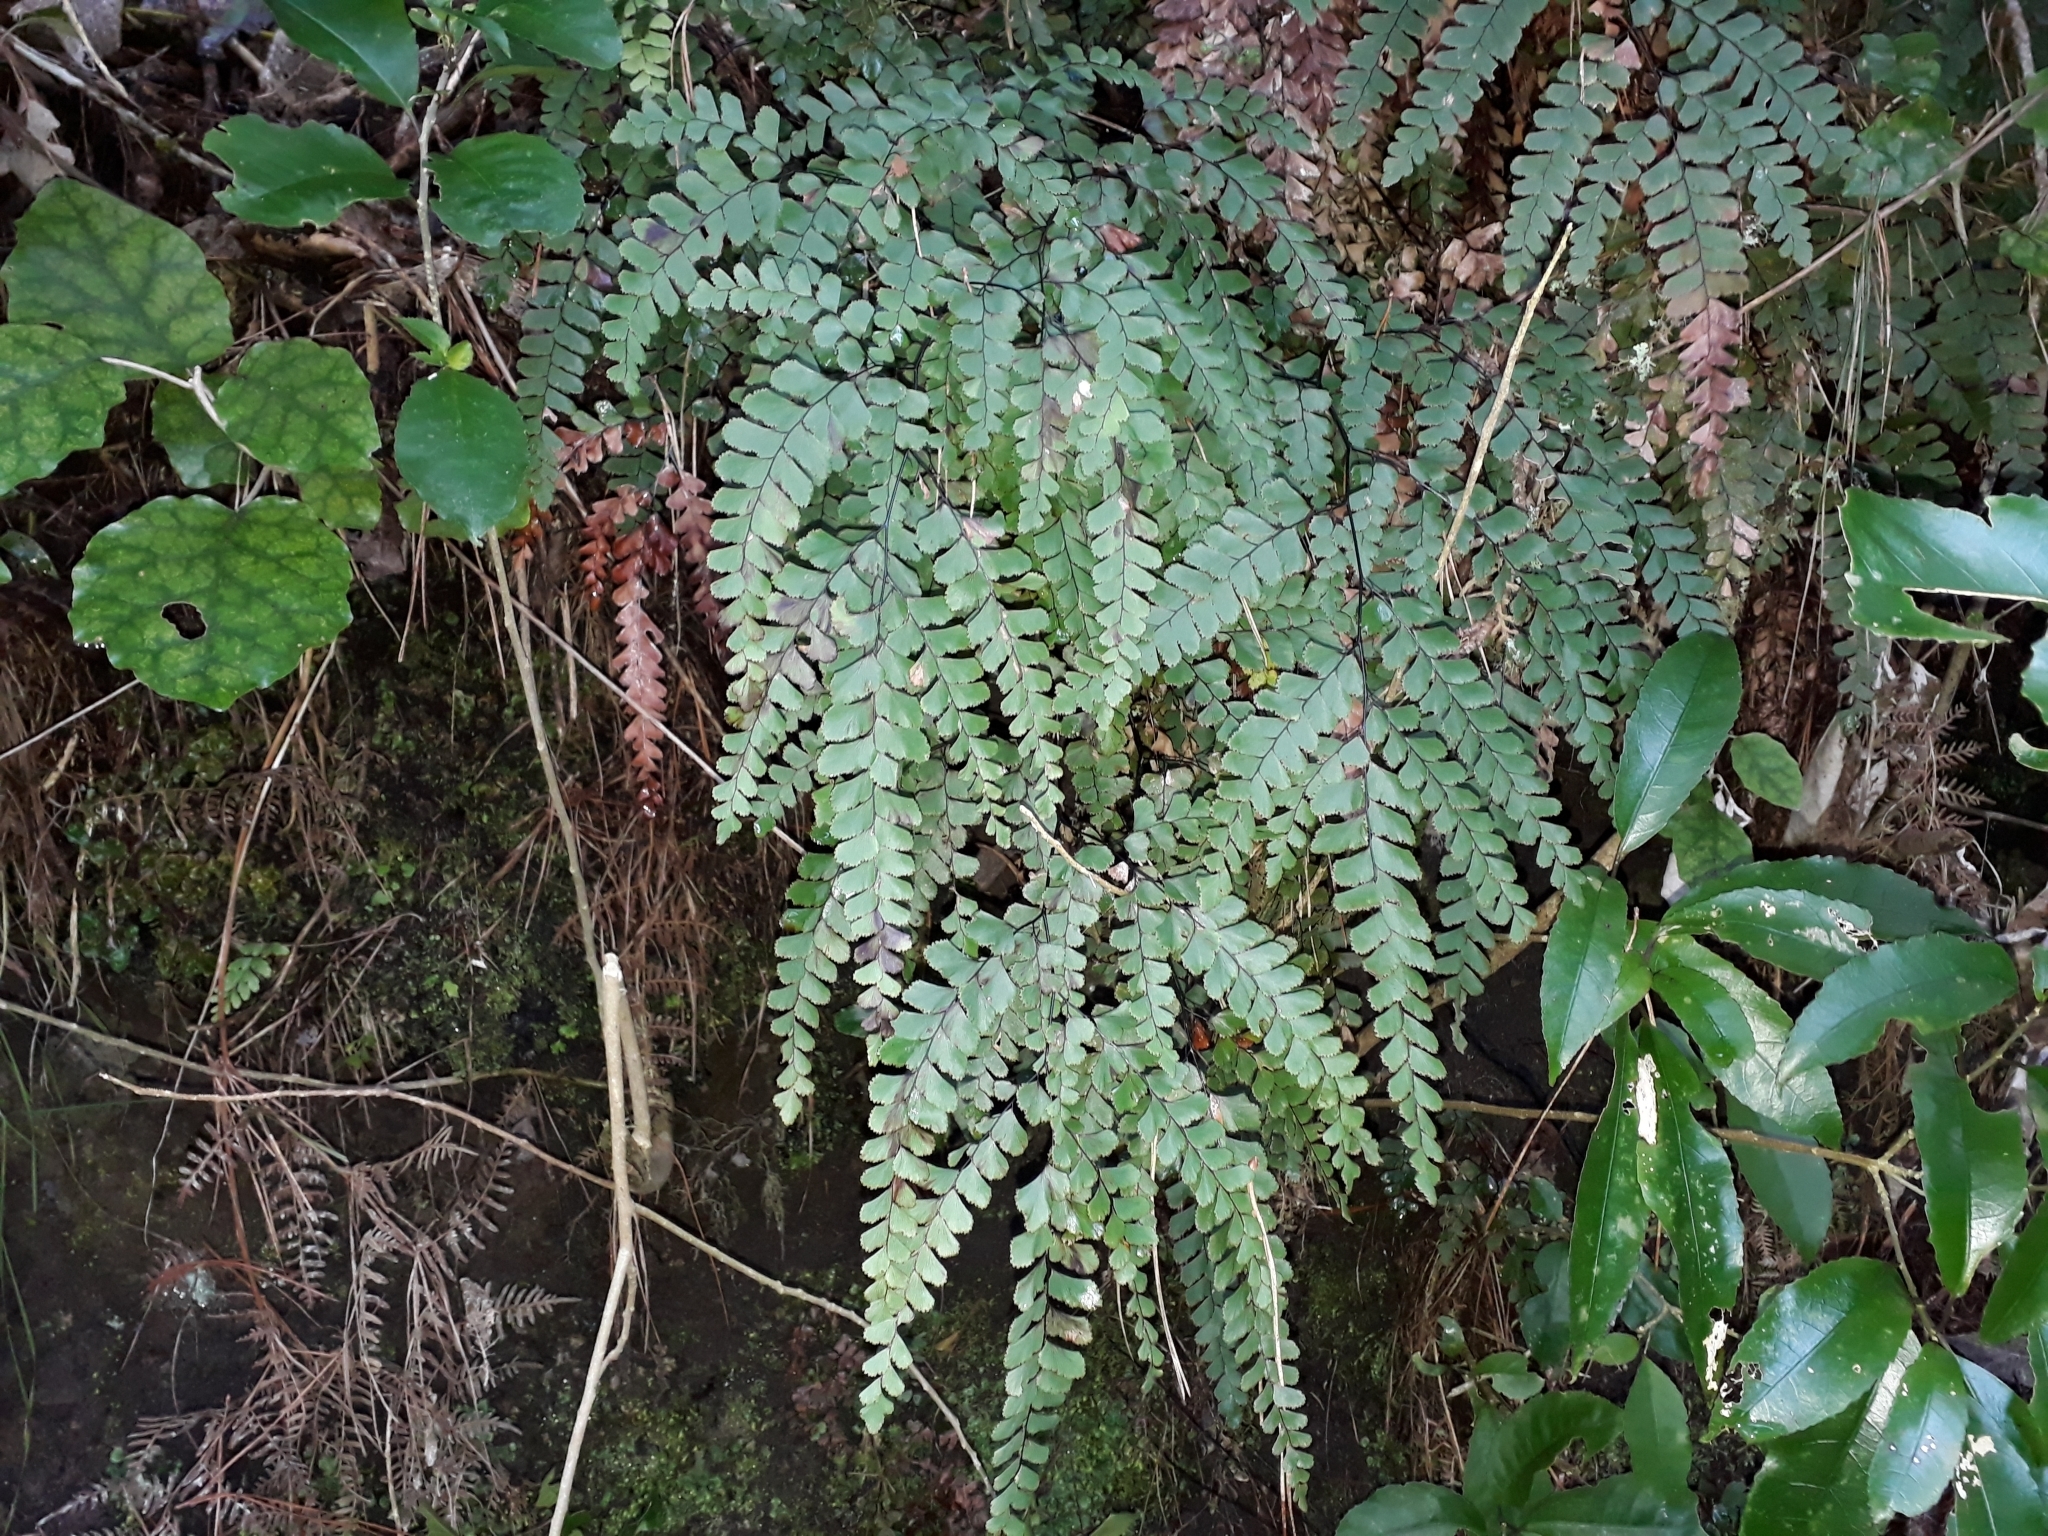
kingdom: Plantae
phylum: Tracheophyta
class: Polypodiopsida
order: Polypodiales
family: Pteridaceae
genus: Adiantum
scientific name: Adiantum cunninghamii
